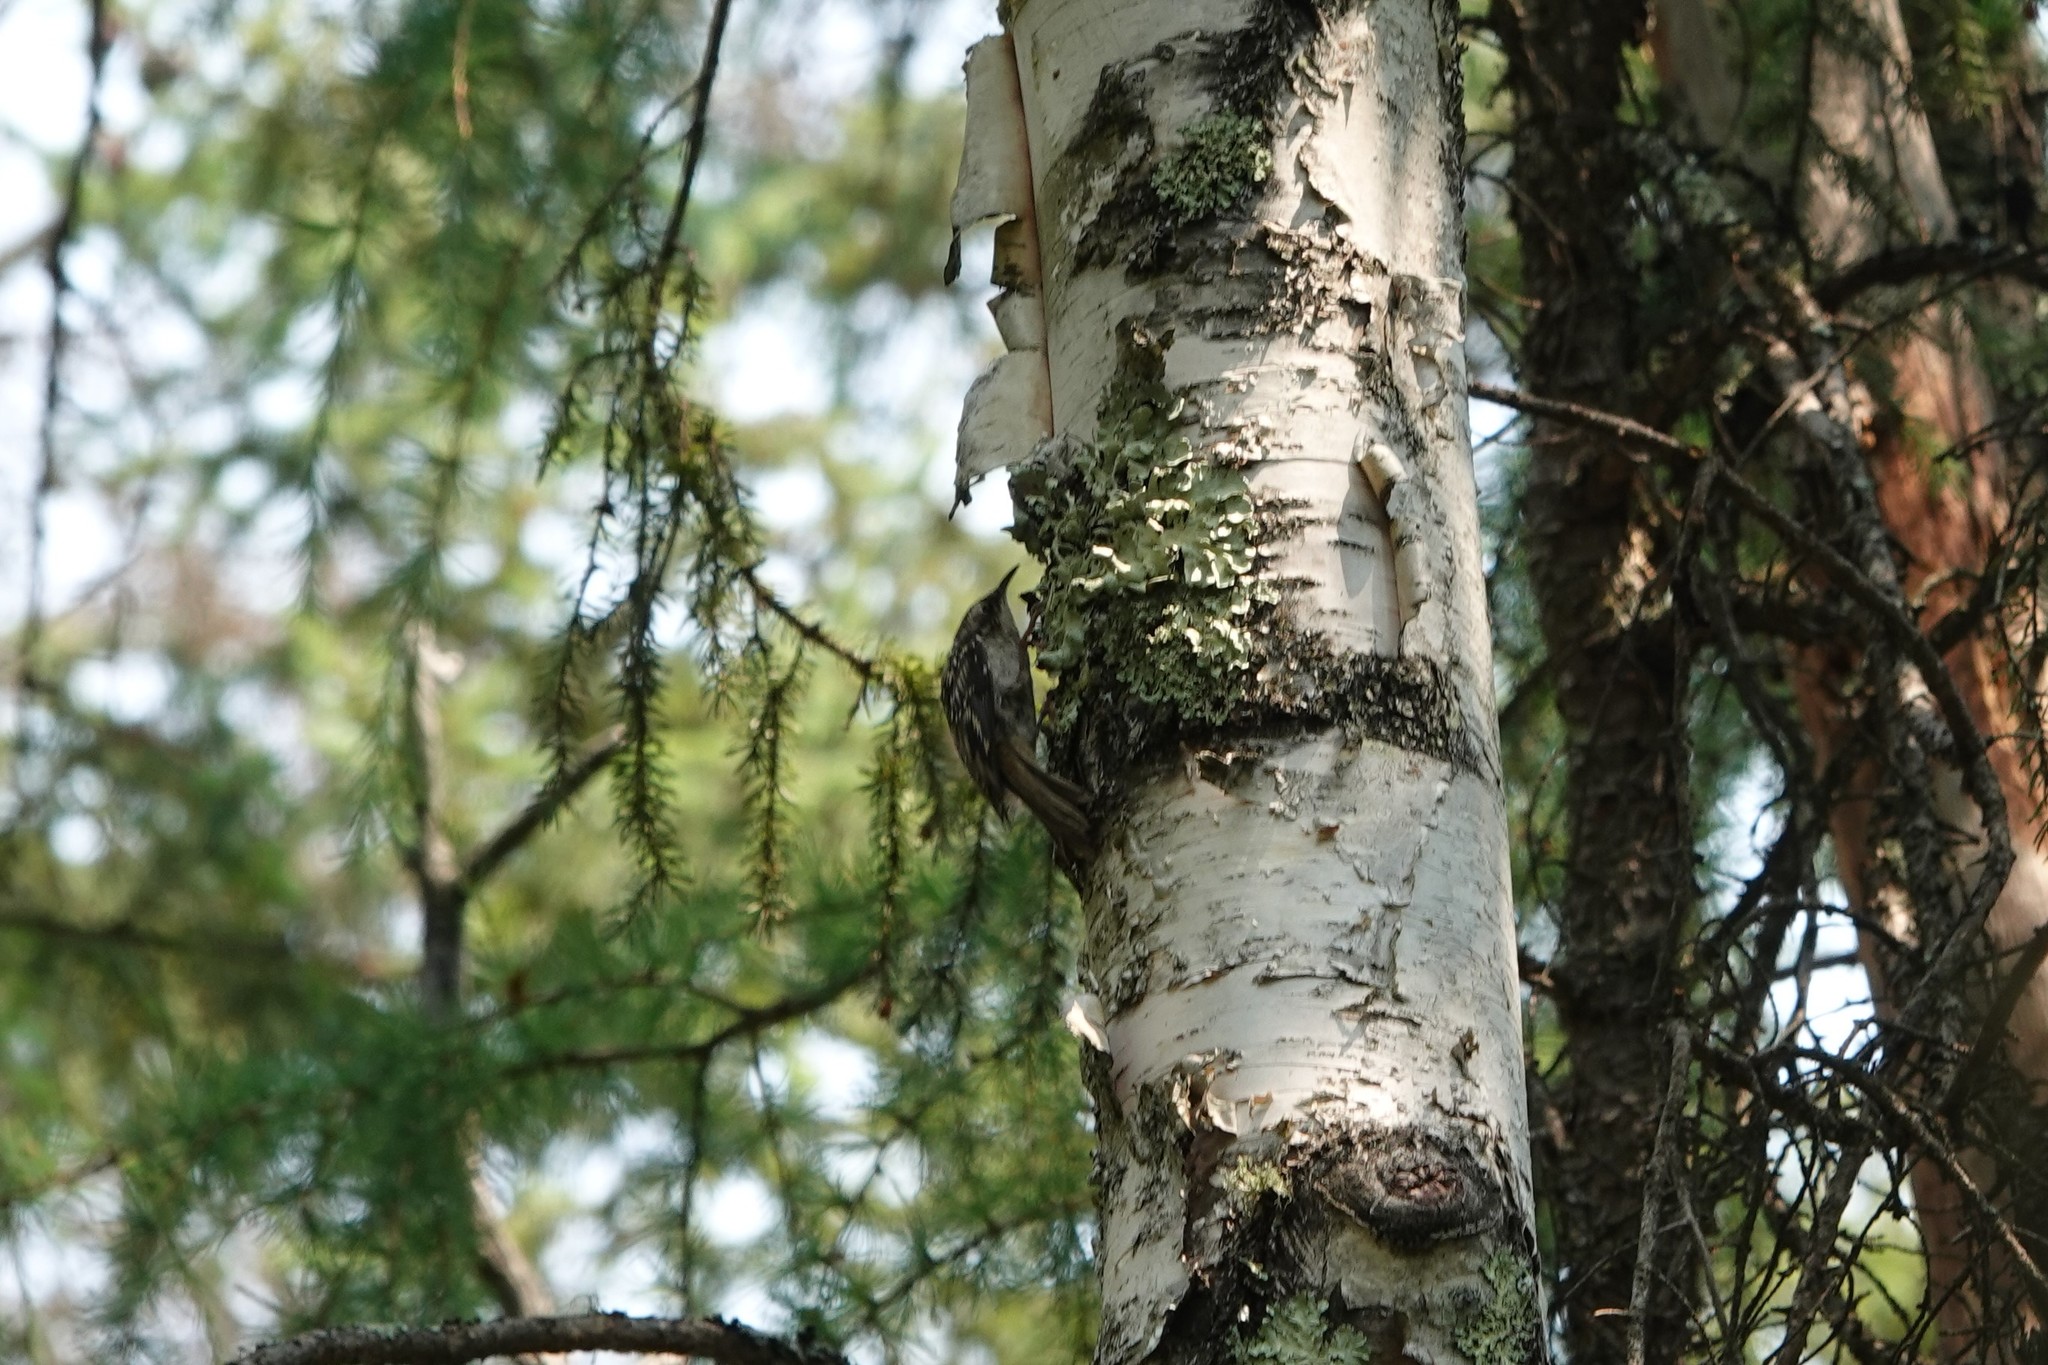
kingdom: Animalia
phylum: Chordata
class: Aves
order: Passeriformes
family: Certhiidae
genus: Certhia
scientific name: Certhia americana
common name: Brown creeper
